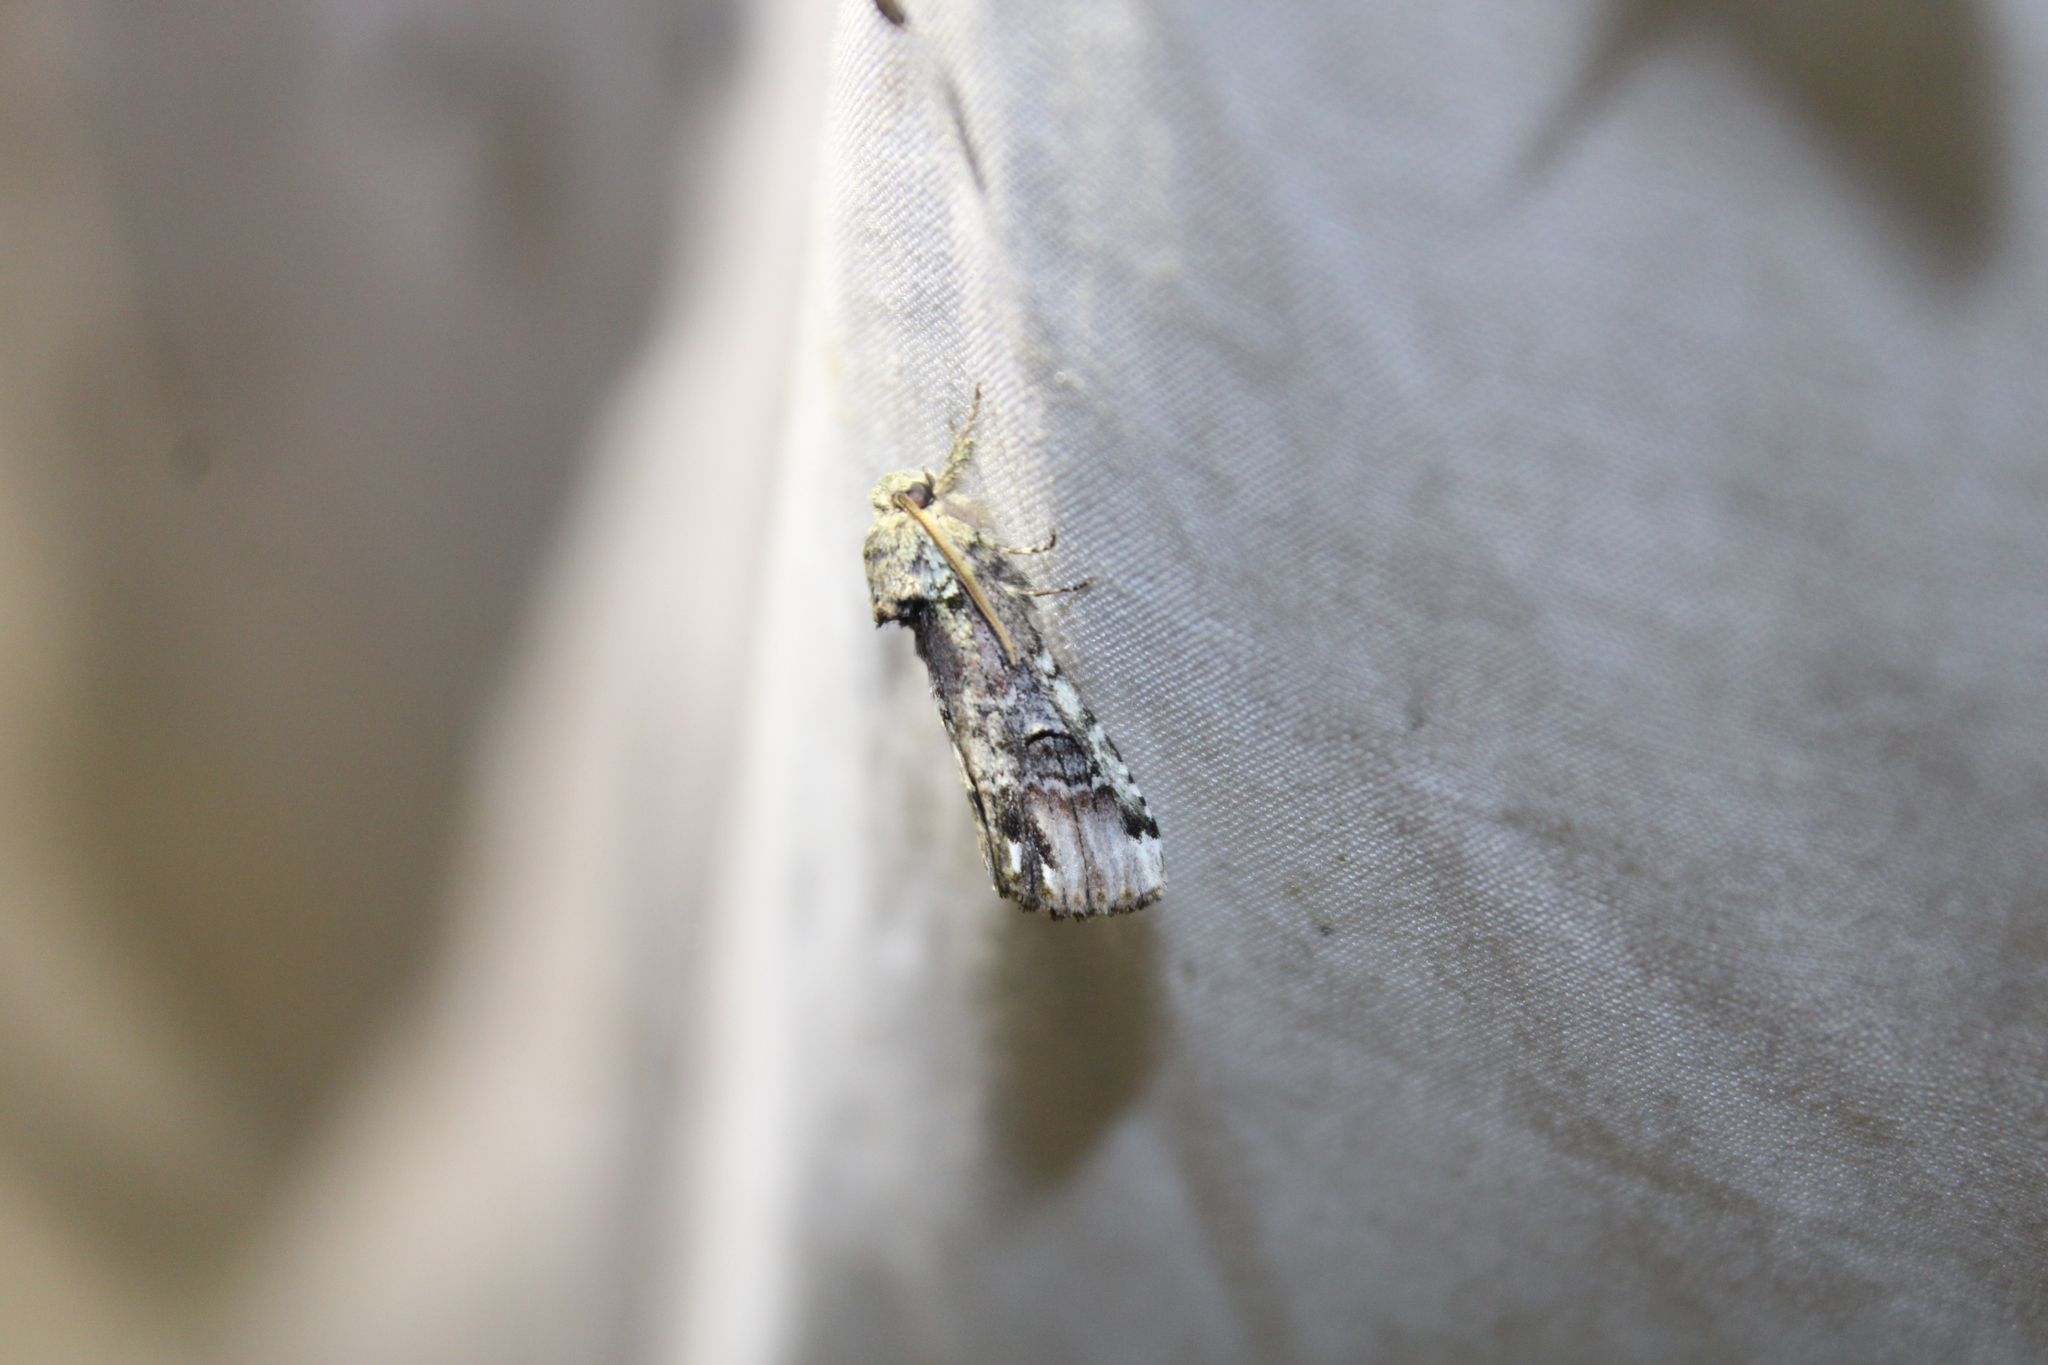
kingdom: Animalia
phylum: Arthropoda
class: Insecta
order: Lepidoptera
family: Notodontidae
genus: Schizura
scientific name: Schizura
